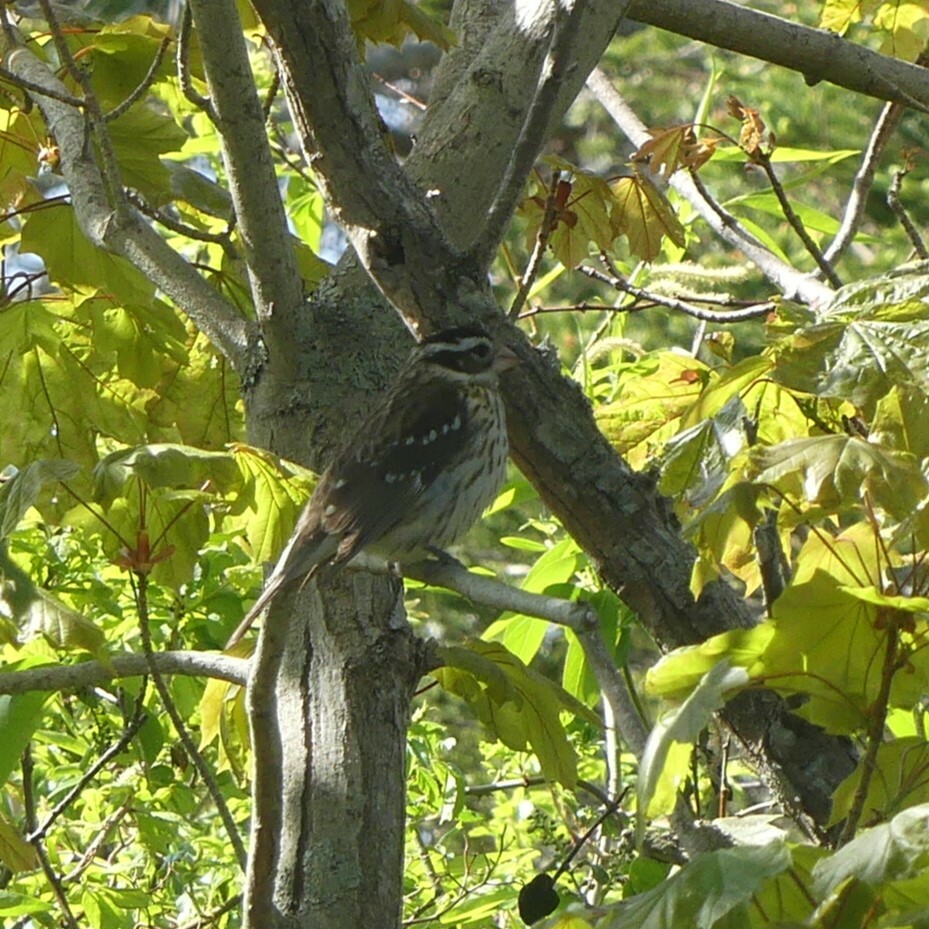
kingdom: Animalia
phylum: Chordata
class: Aves
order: Passeriformes
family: Cardinalidae
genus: Pheucticus
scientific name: Pheucticus ludovicianus
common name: Rose-breasted grosbeak
